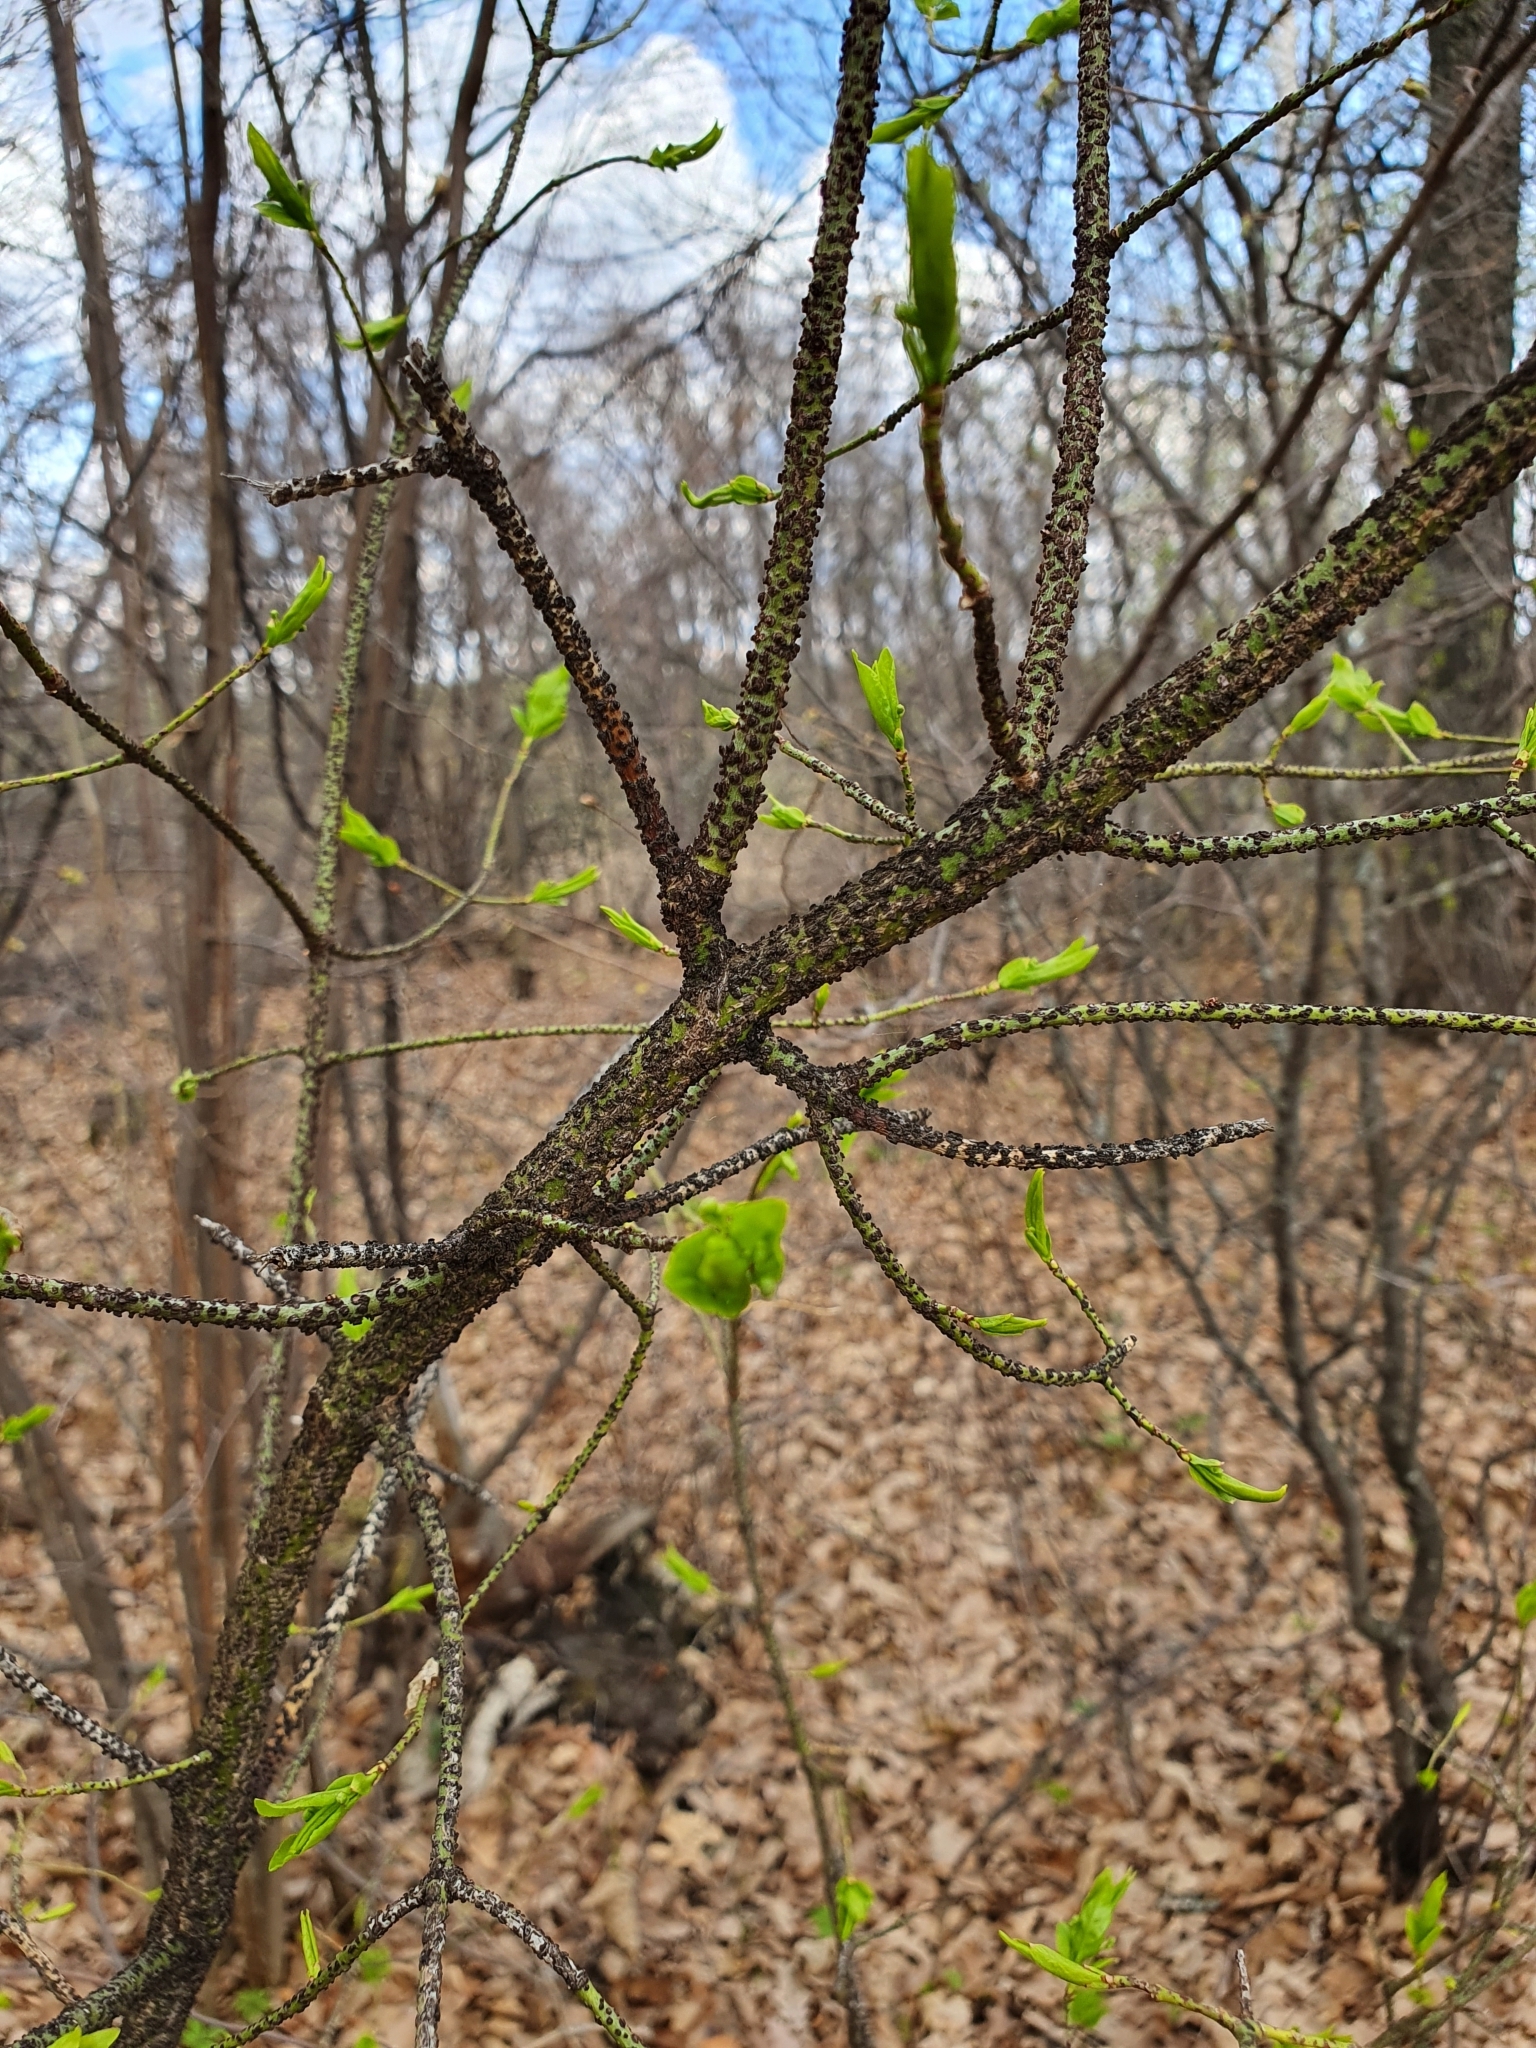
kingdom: Plantae
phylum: Tracheophyta
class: Magnoliopsida
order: Celastrales
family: Celastraceae
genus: Euonymus
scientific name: Euonymus verrucosus
